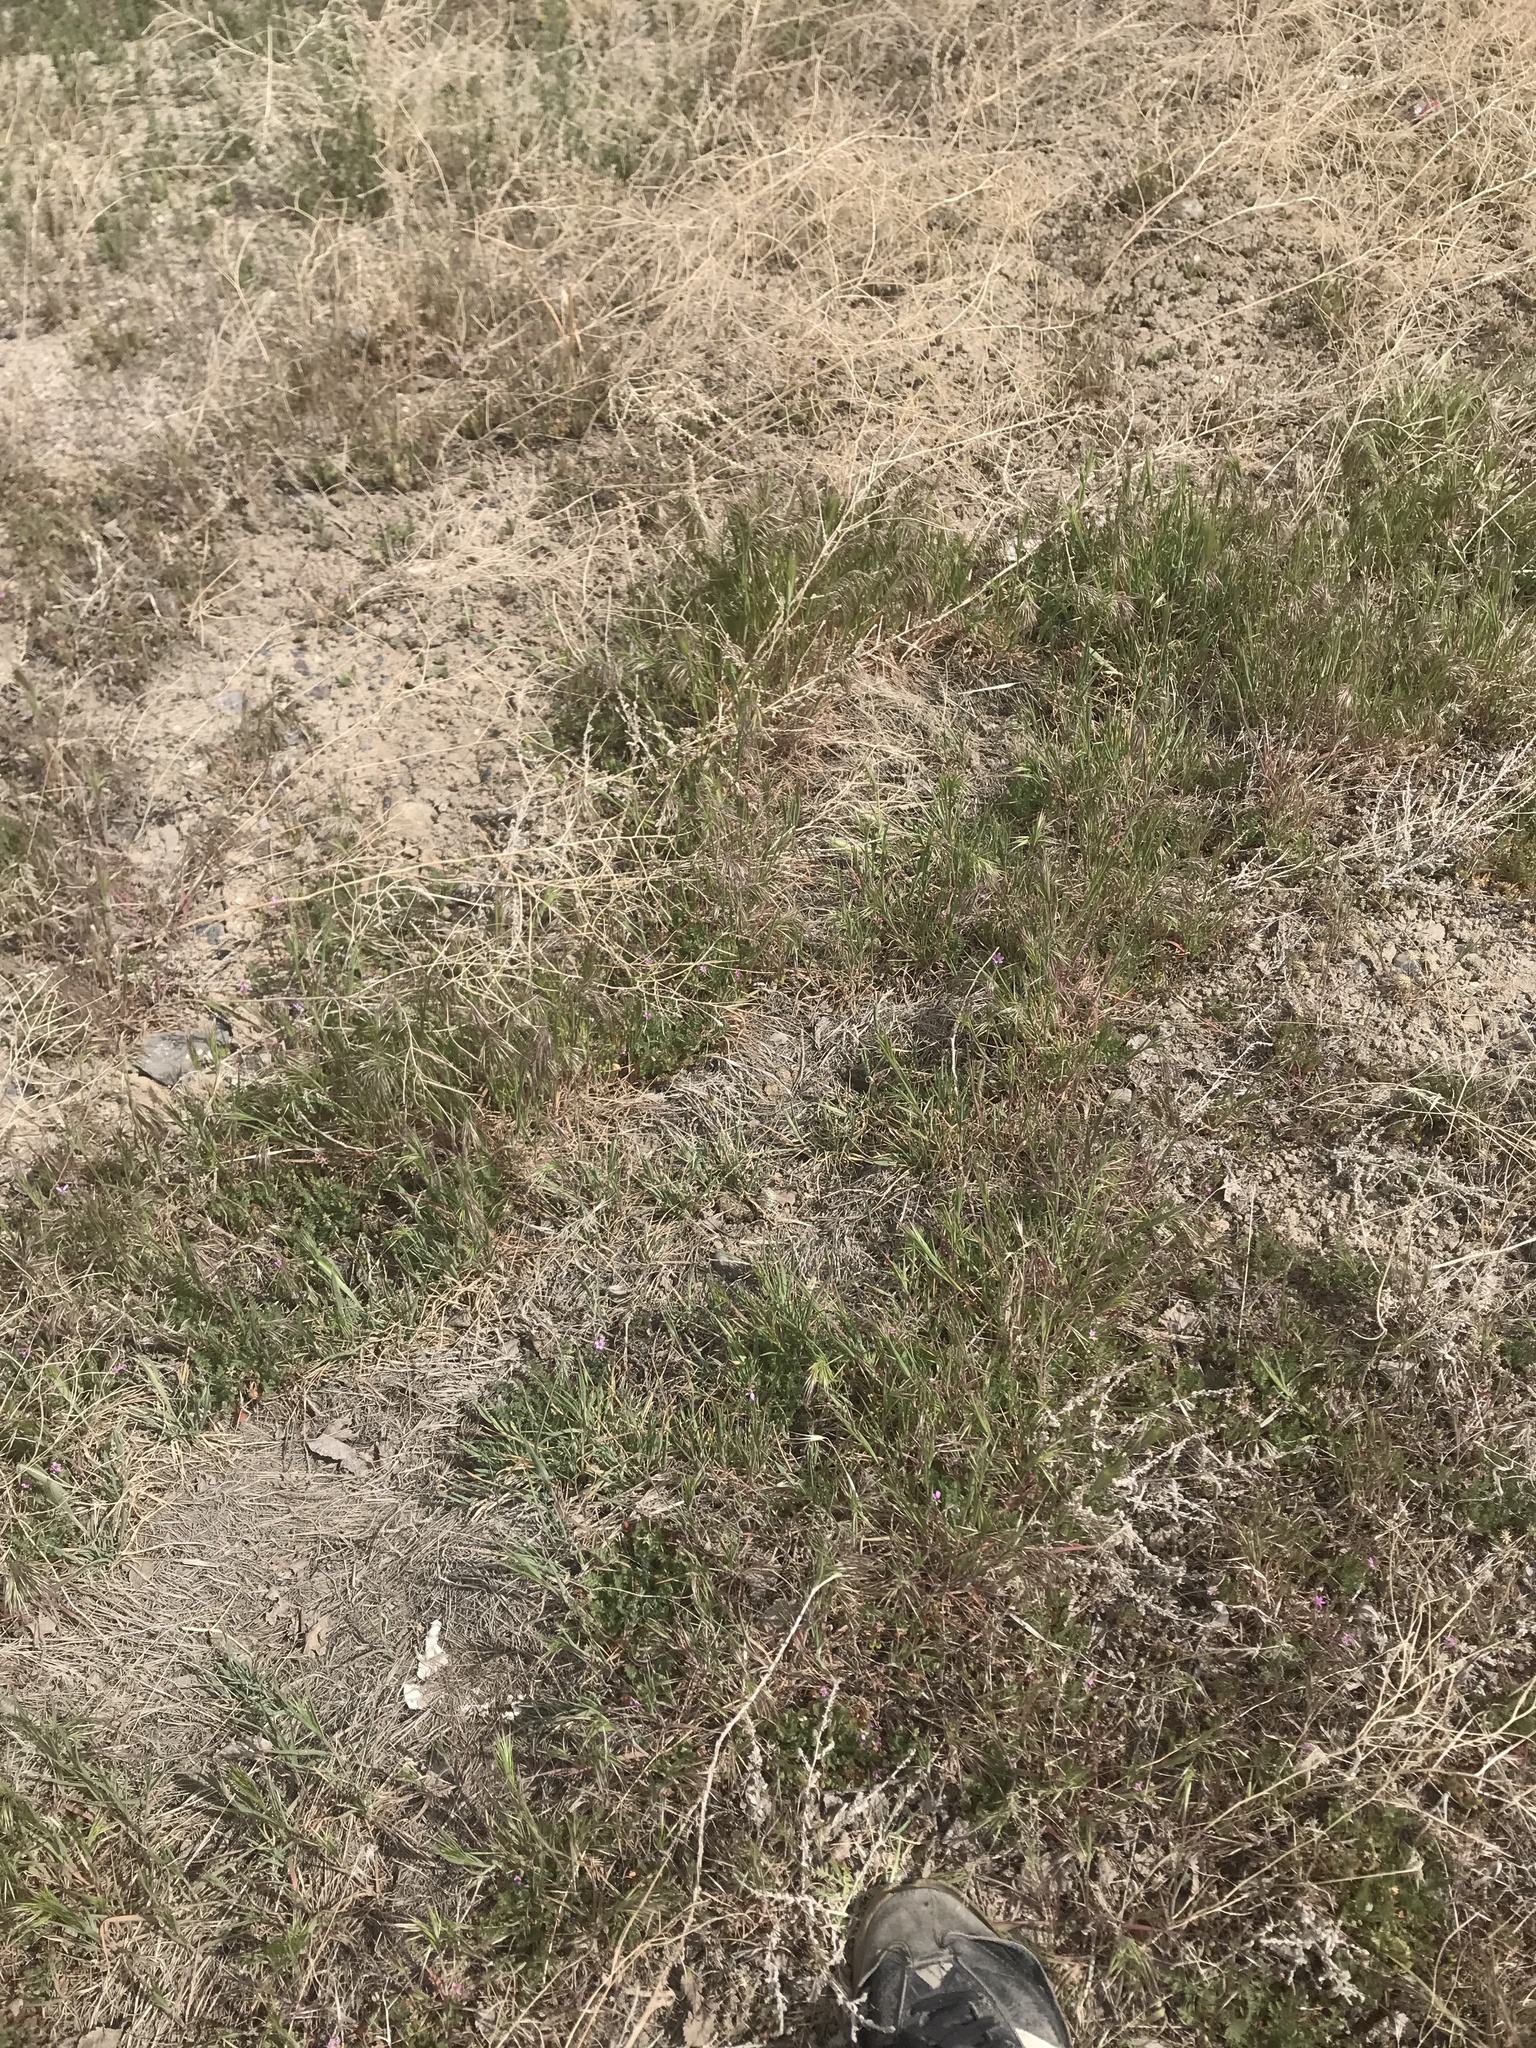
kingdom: Plantae
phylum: Tracheophyta
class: Liliopsida
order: Poales
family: Poaceae
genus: Bromus
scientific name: Bromus tectorum
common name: Cheatgrass
